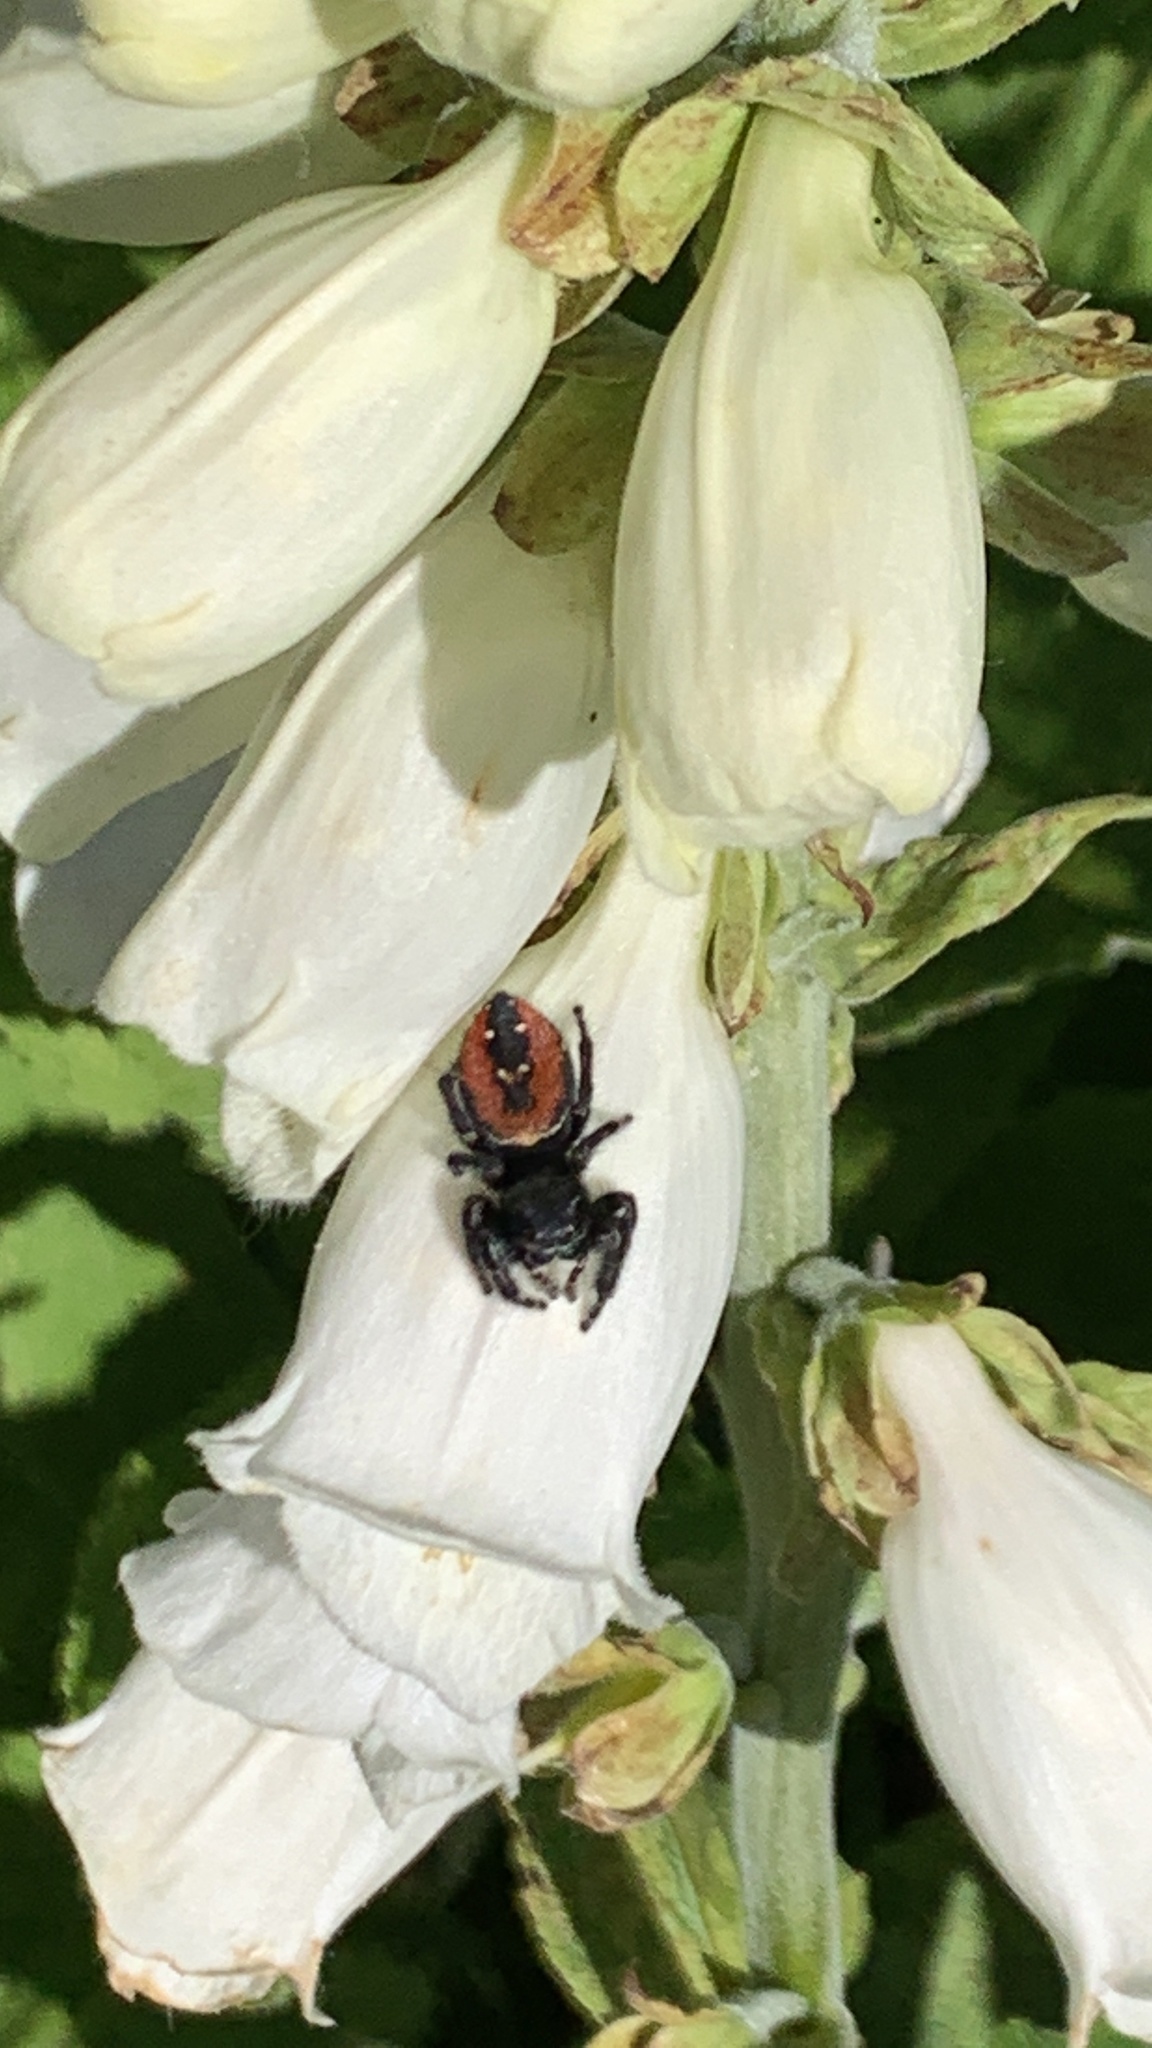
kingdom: Animalia
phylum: Arthropoda
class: Arachnida
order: Araneae
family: Salticidae
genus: Phidippus
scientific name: Phidippus johnsoni
